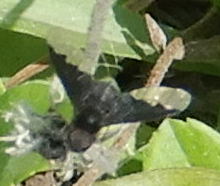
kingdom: Animalia
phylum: Arthropoda
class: Insecta
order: Diptera
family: Bombyliidae
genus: Anthrax
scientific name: Anthrax analis
